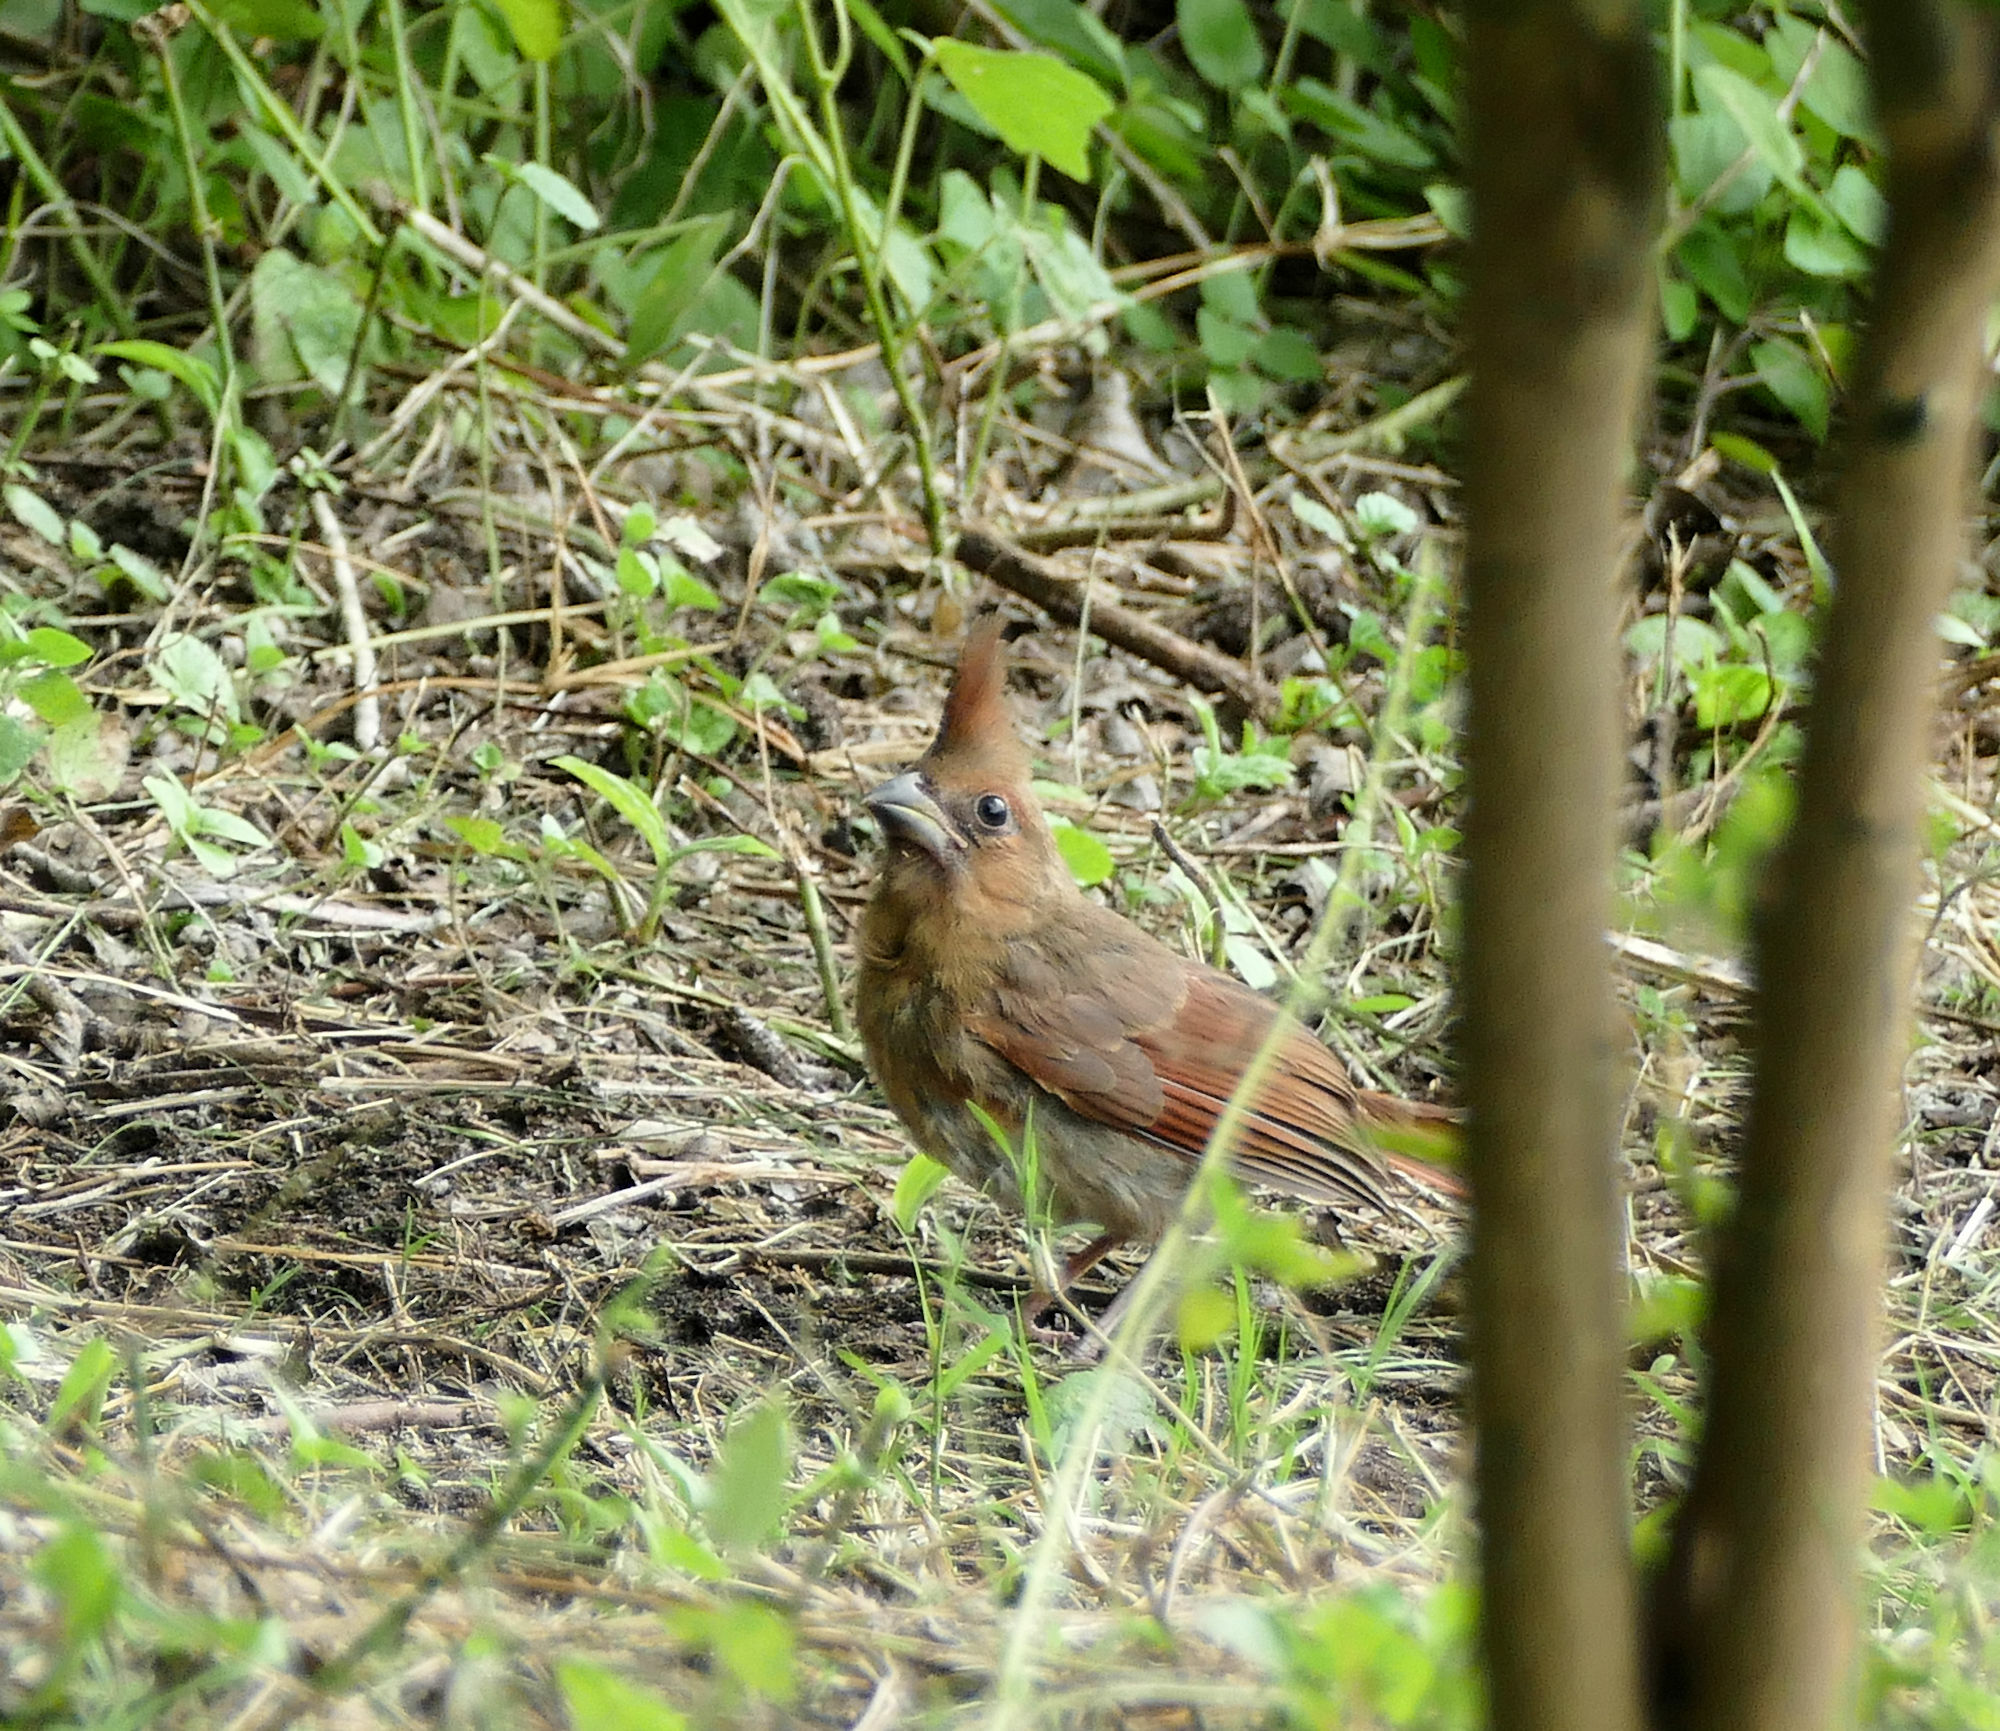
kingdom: Animalia
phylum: Chordata
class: Aves
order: Passeriformes
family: Cardinalidae
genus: Cardinalis
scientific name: Cardinalis cardinalis
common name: Northern cardinal
